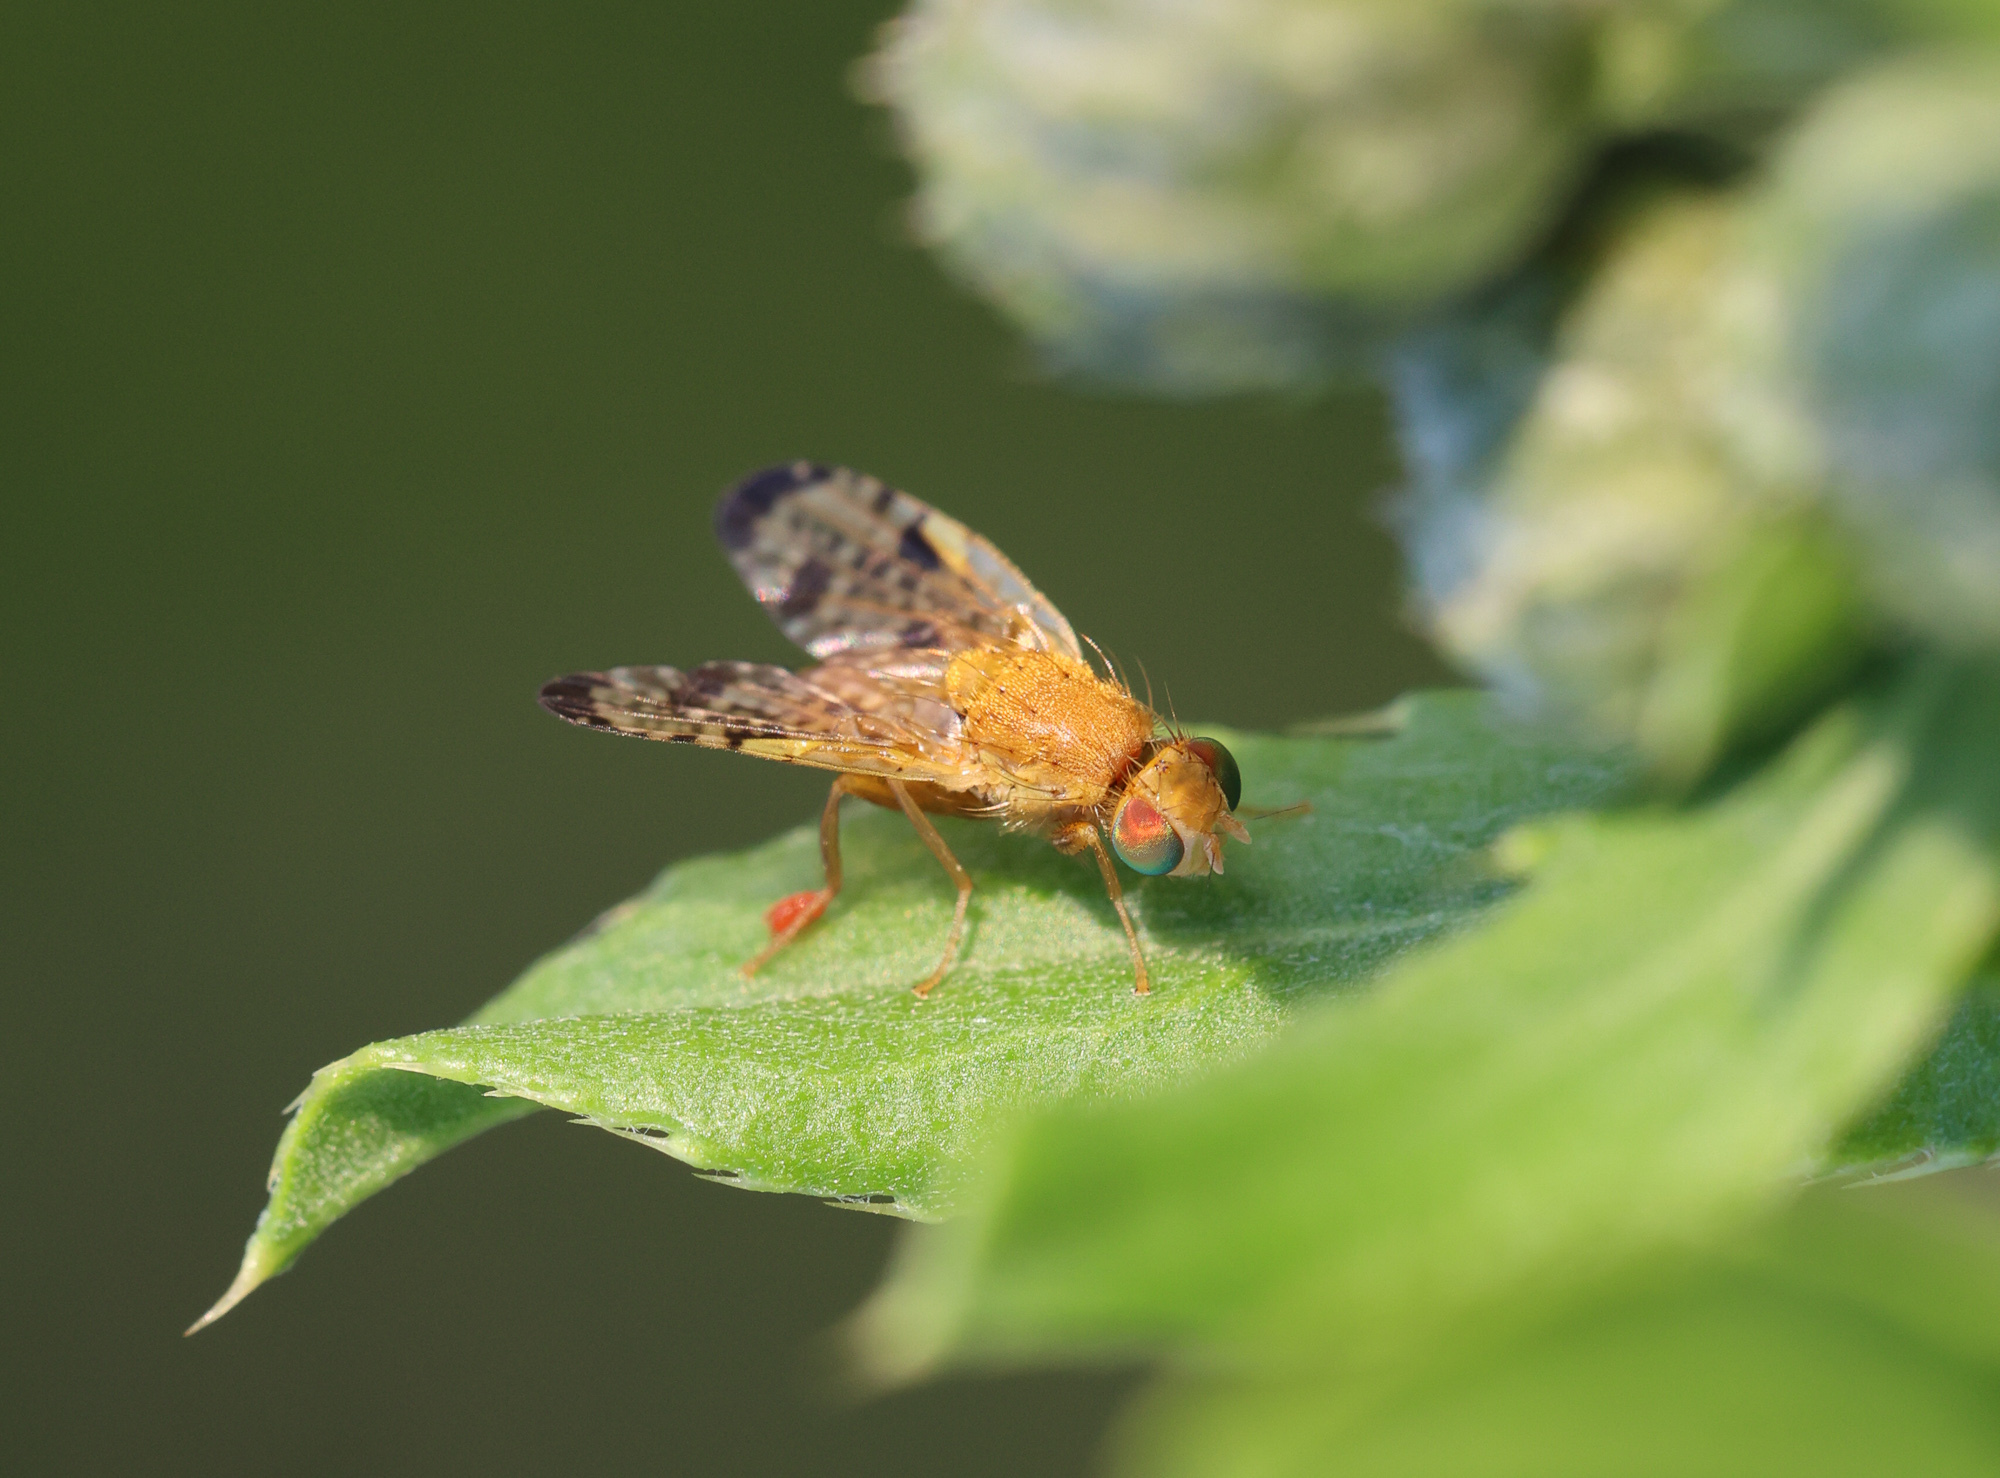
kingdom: Animalia
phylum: Arthropoda
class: Insecta
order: Diptera
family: Tephritidae
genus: Xyphosia
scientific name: Xyphosia miliaria
